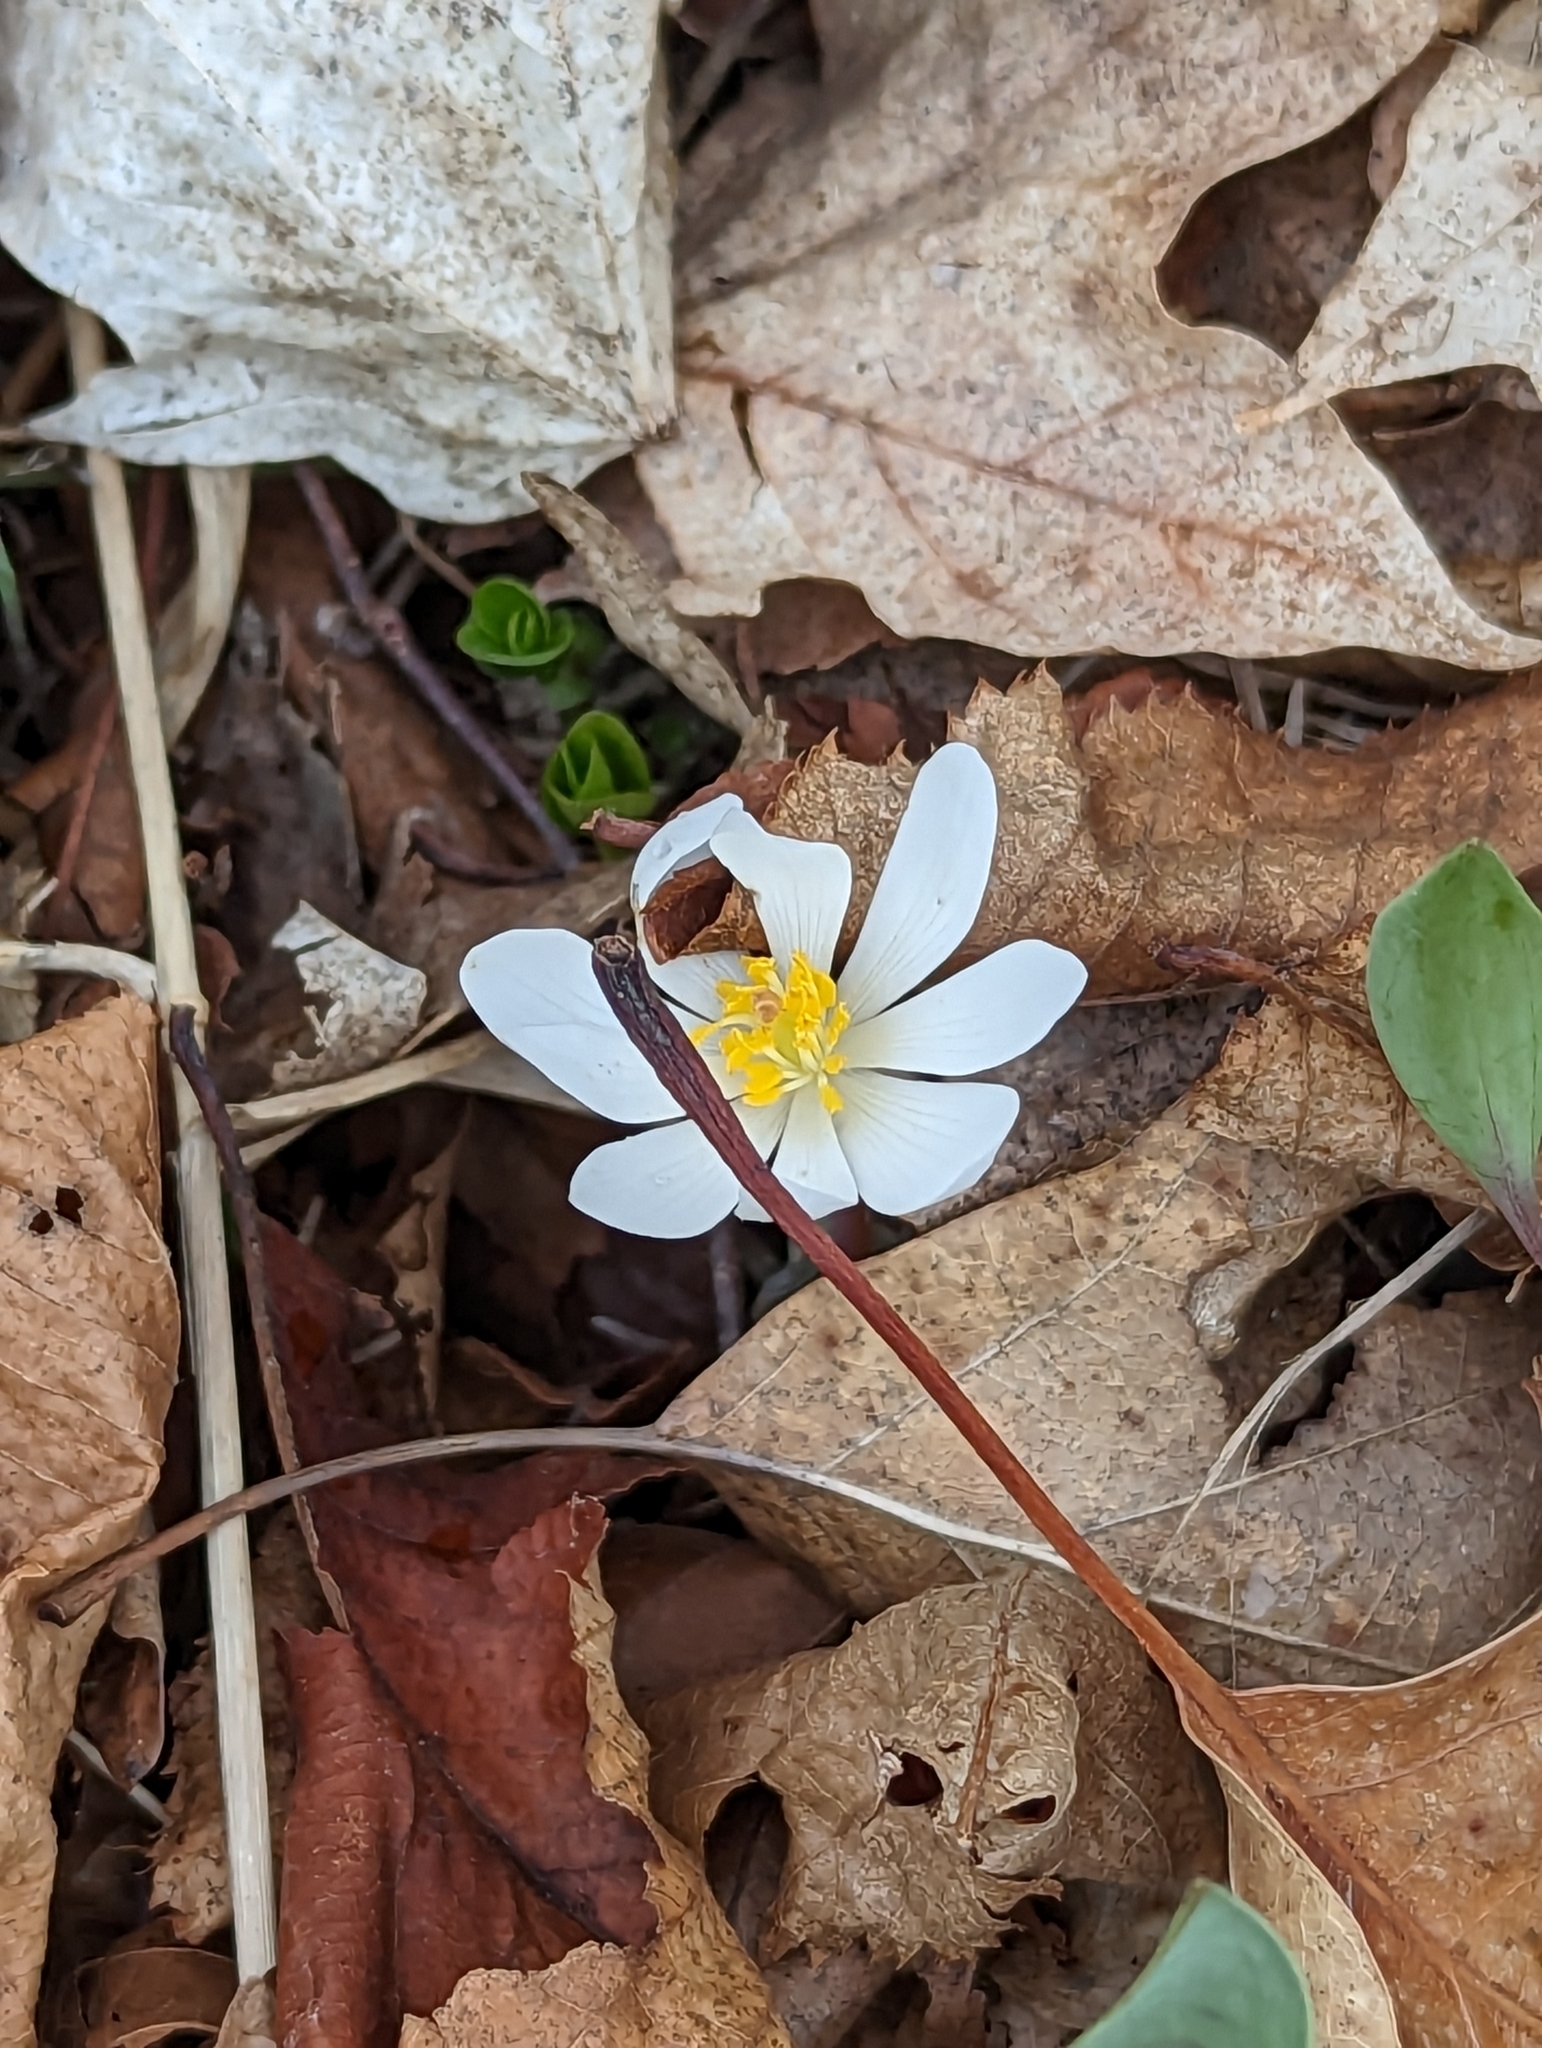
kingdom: Plantae
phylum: Tracheophyta
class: Magnoliopsida
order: Ranunculales
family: Papaveraceae
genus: Sanguinaria
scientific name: Sanguinaria canadensis
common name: Bloodroot
